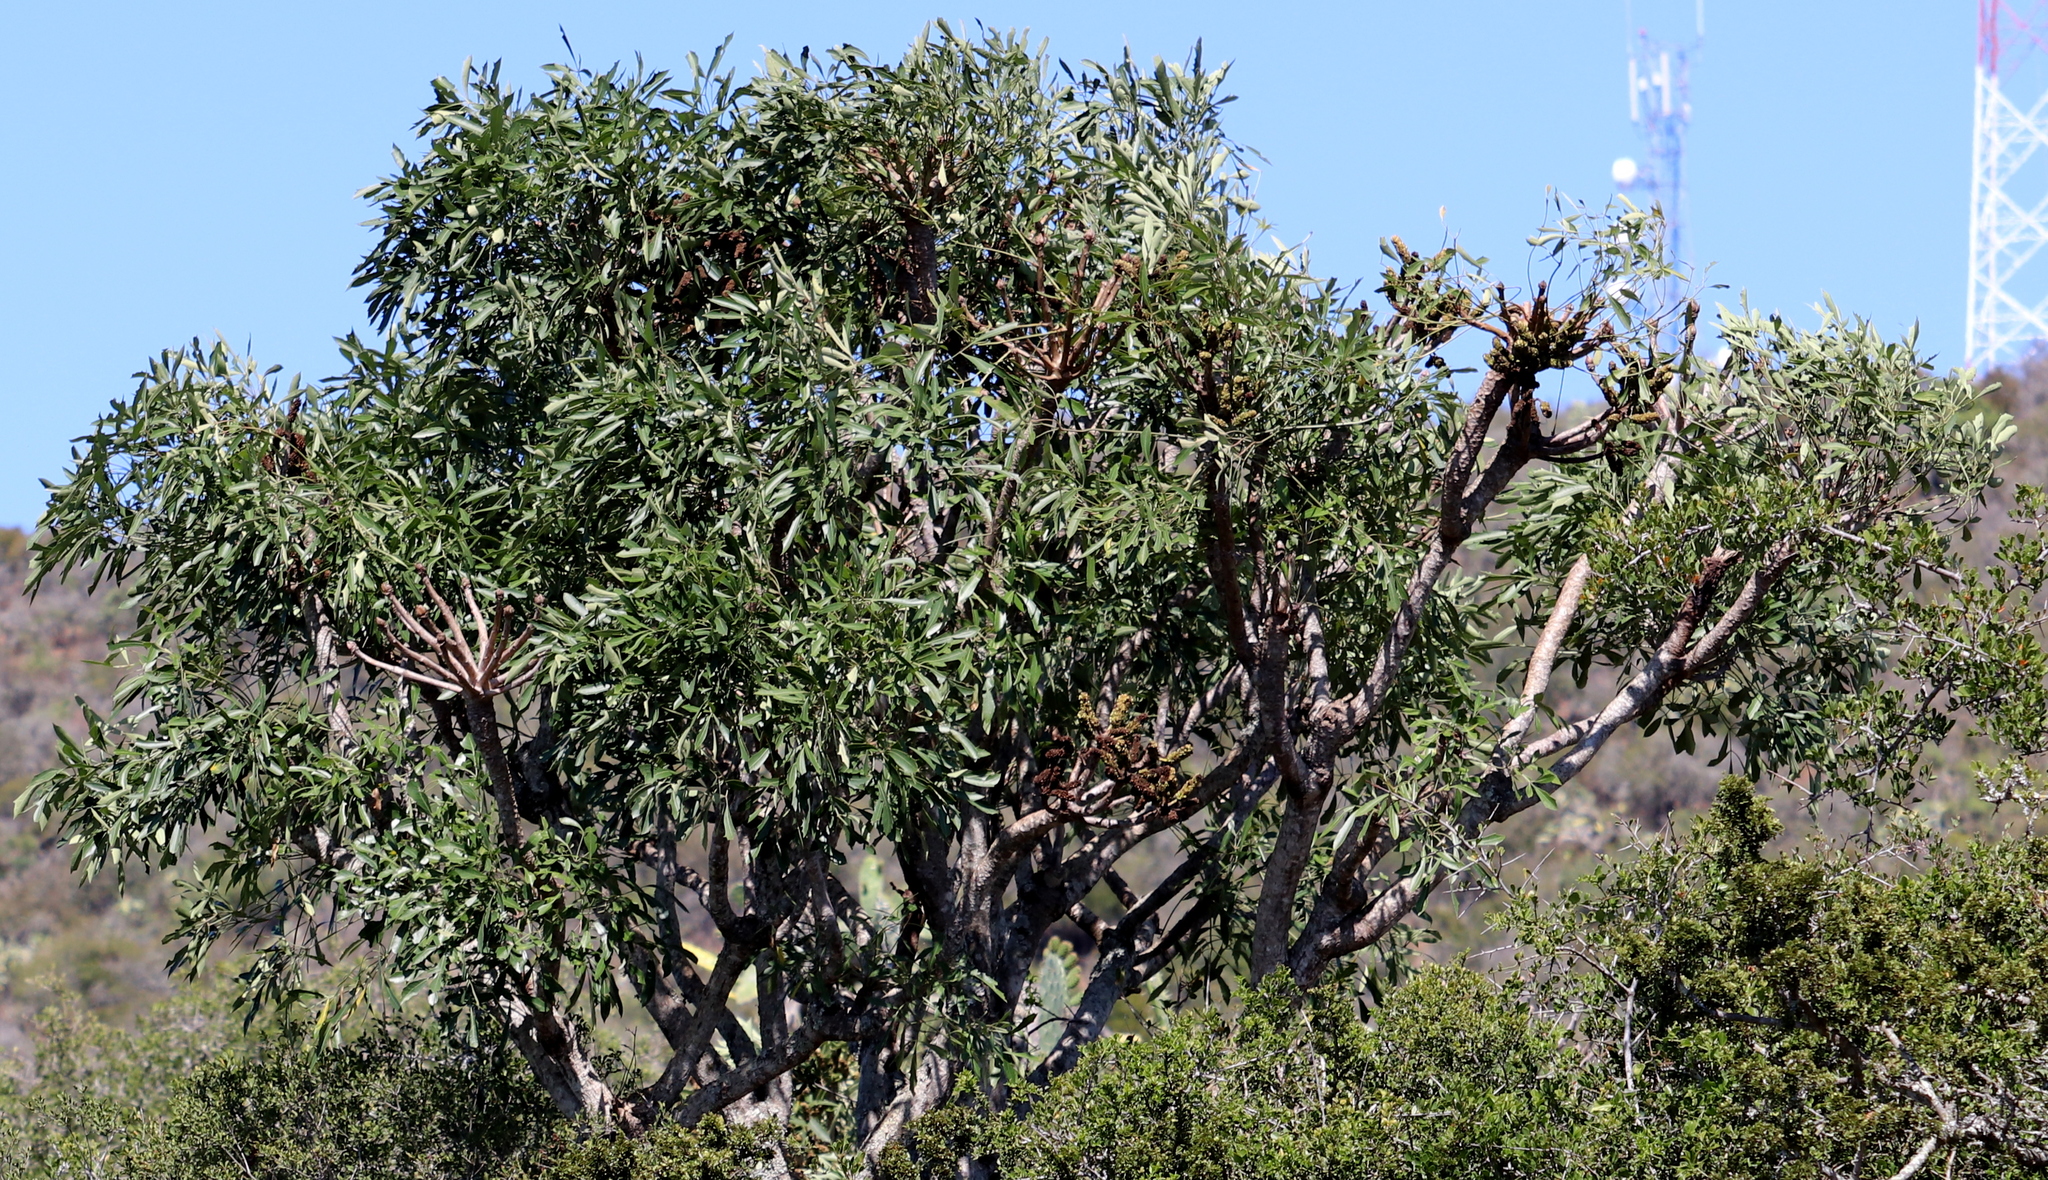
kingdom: Plantae
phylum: Tracheophyta
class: Magnoliopsida
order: Apiales
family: Araliaceae
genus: Cussonia
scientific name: Cussonia spicata
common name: Common cabbagetree
